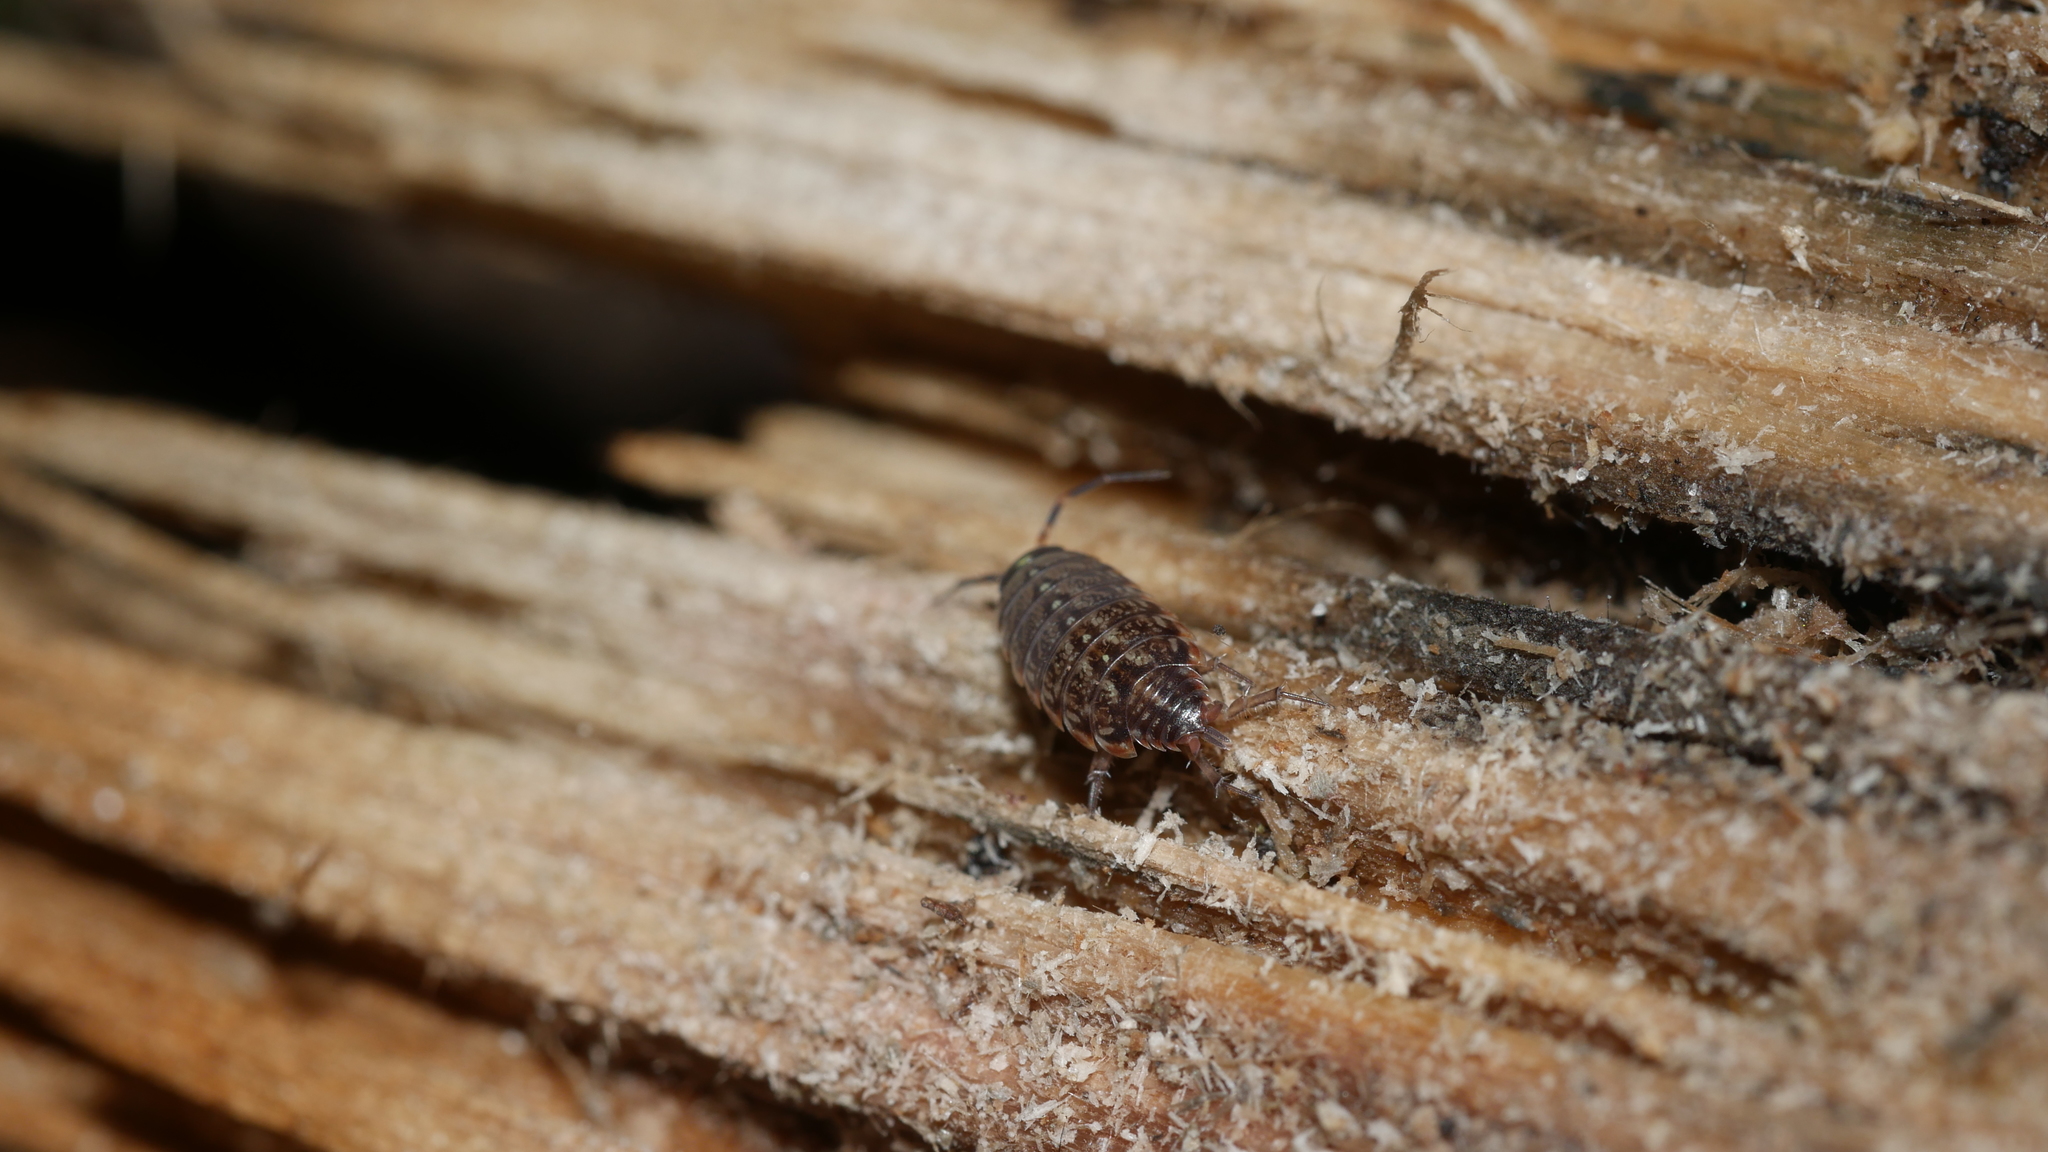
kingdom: Animalia
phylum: Arthropoda
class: Malacostraca
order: Isopoda
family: Philosciidae
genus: Philoscia
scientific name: Philoscia muscorum
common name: Common striped woodlouse
